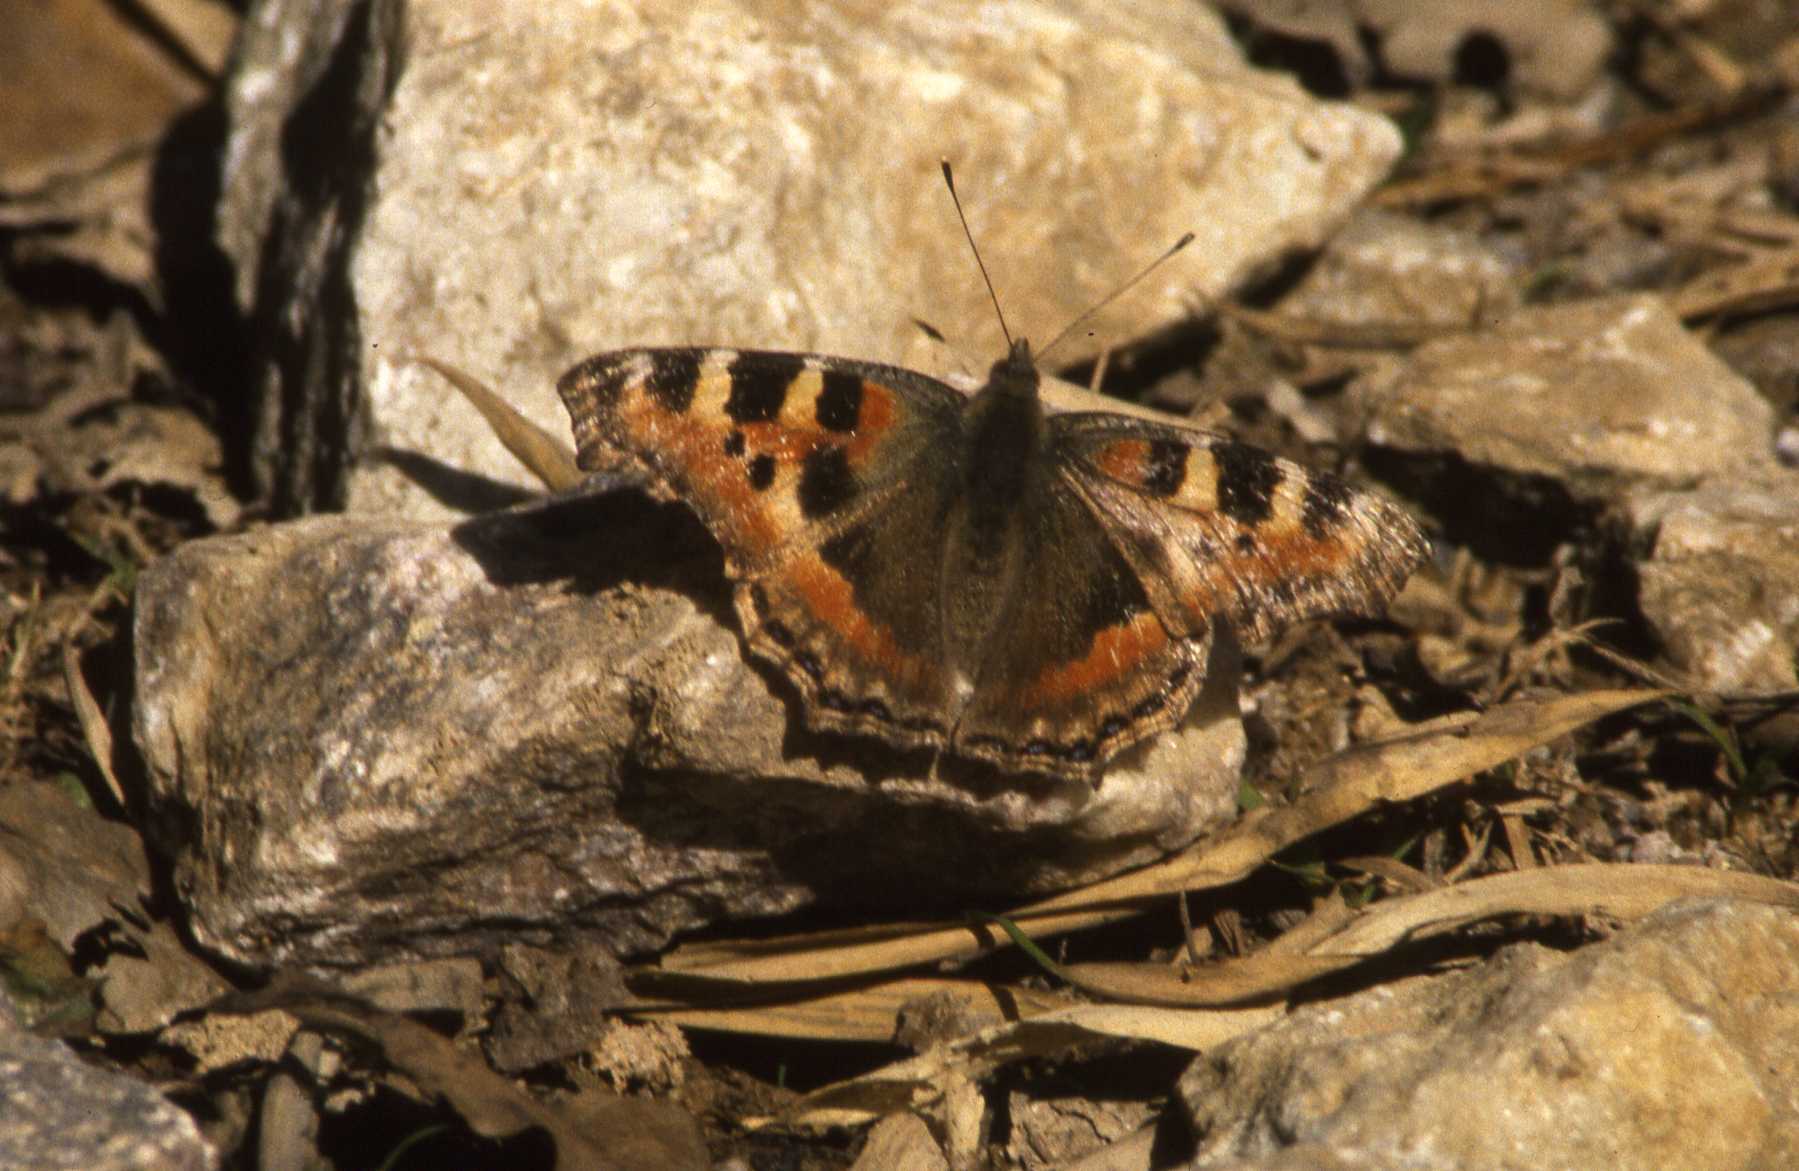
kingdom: Animalia
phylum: Arthropoda
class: Insecta
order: Lepidoptera
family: Nymphalidae
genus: Aglais
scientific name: Aglais caschmirensis
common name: Indian tortoiseshell
